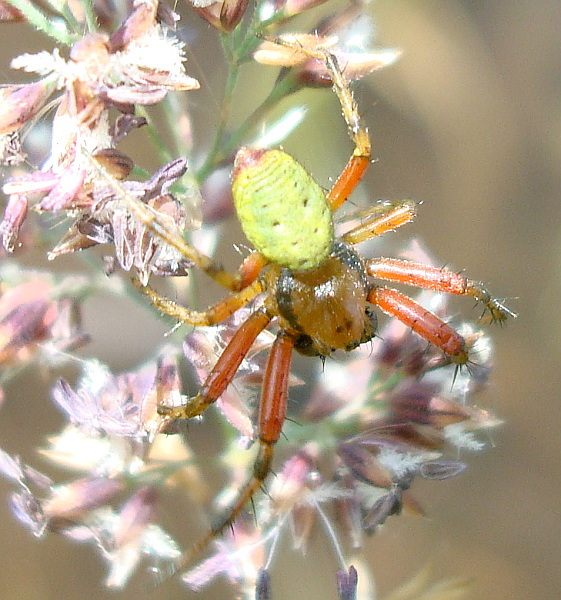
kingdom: Animalia
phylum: Arthropoda
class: Arachnida
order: Araneae
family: Araneidae
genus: Araniella
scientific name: Araniella proxima
